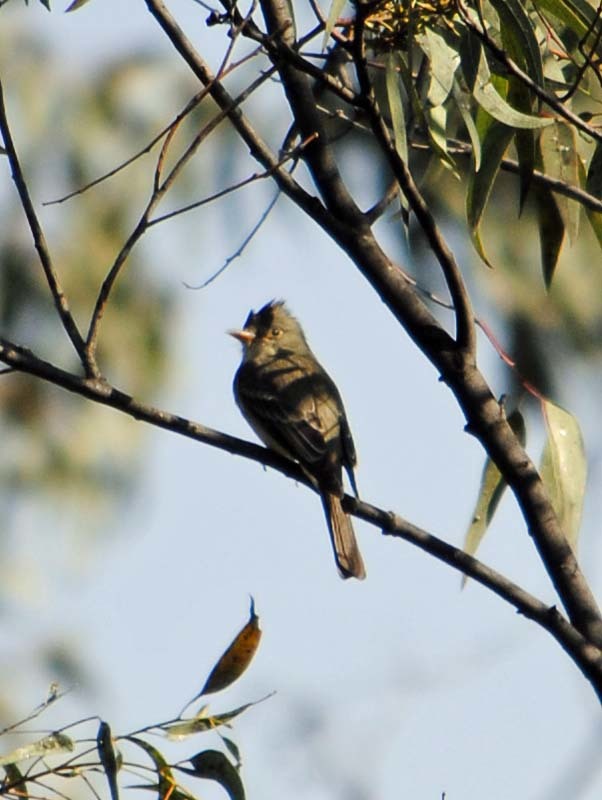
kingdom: Animalia
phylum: Chordata
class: Aves
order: Passeriformes
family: Tyrannidae
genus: Contopus
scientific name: Contopus pertinax
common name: Greater pewee
